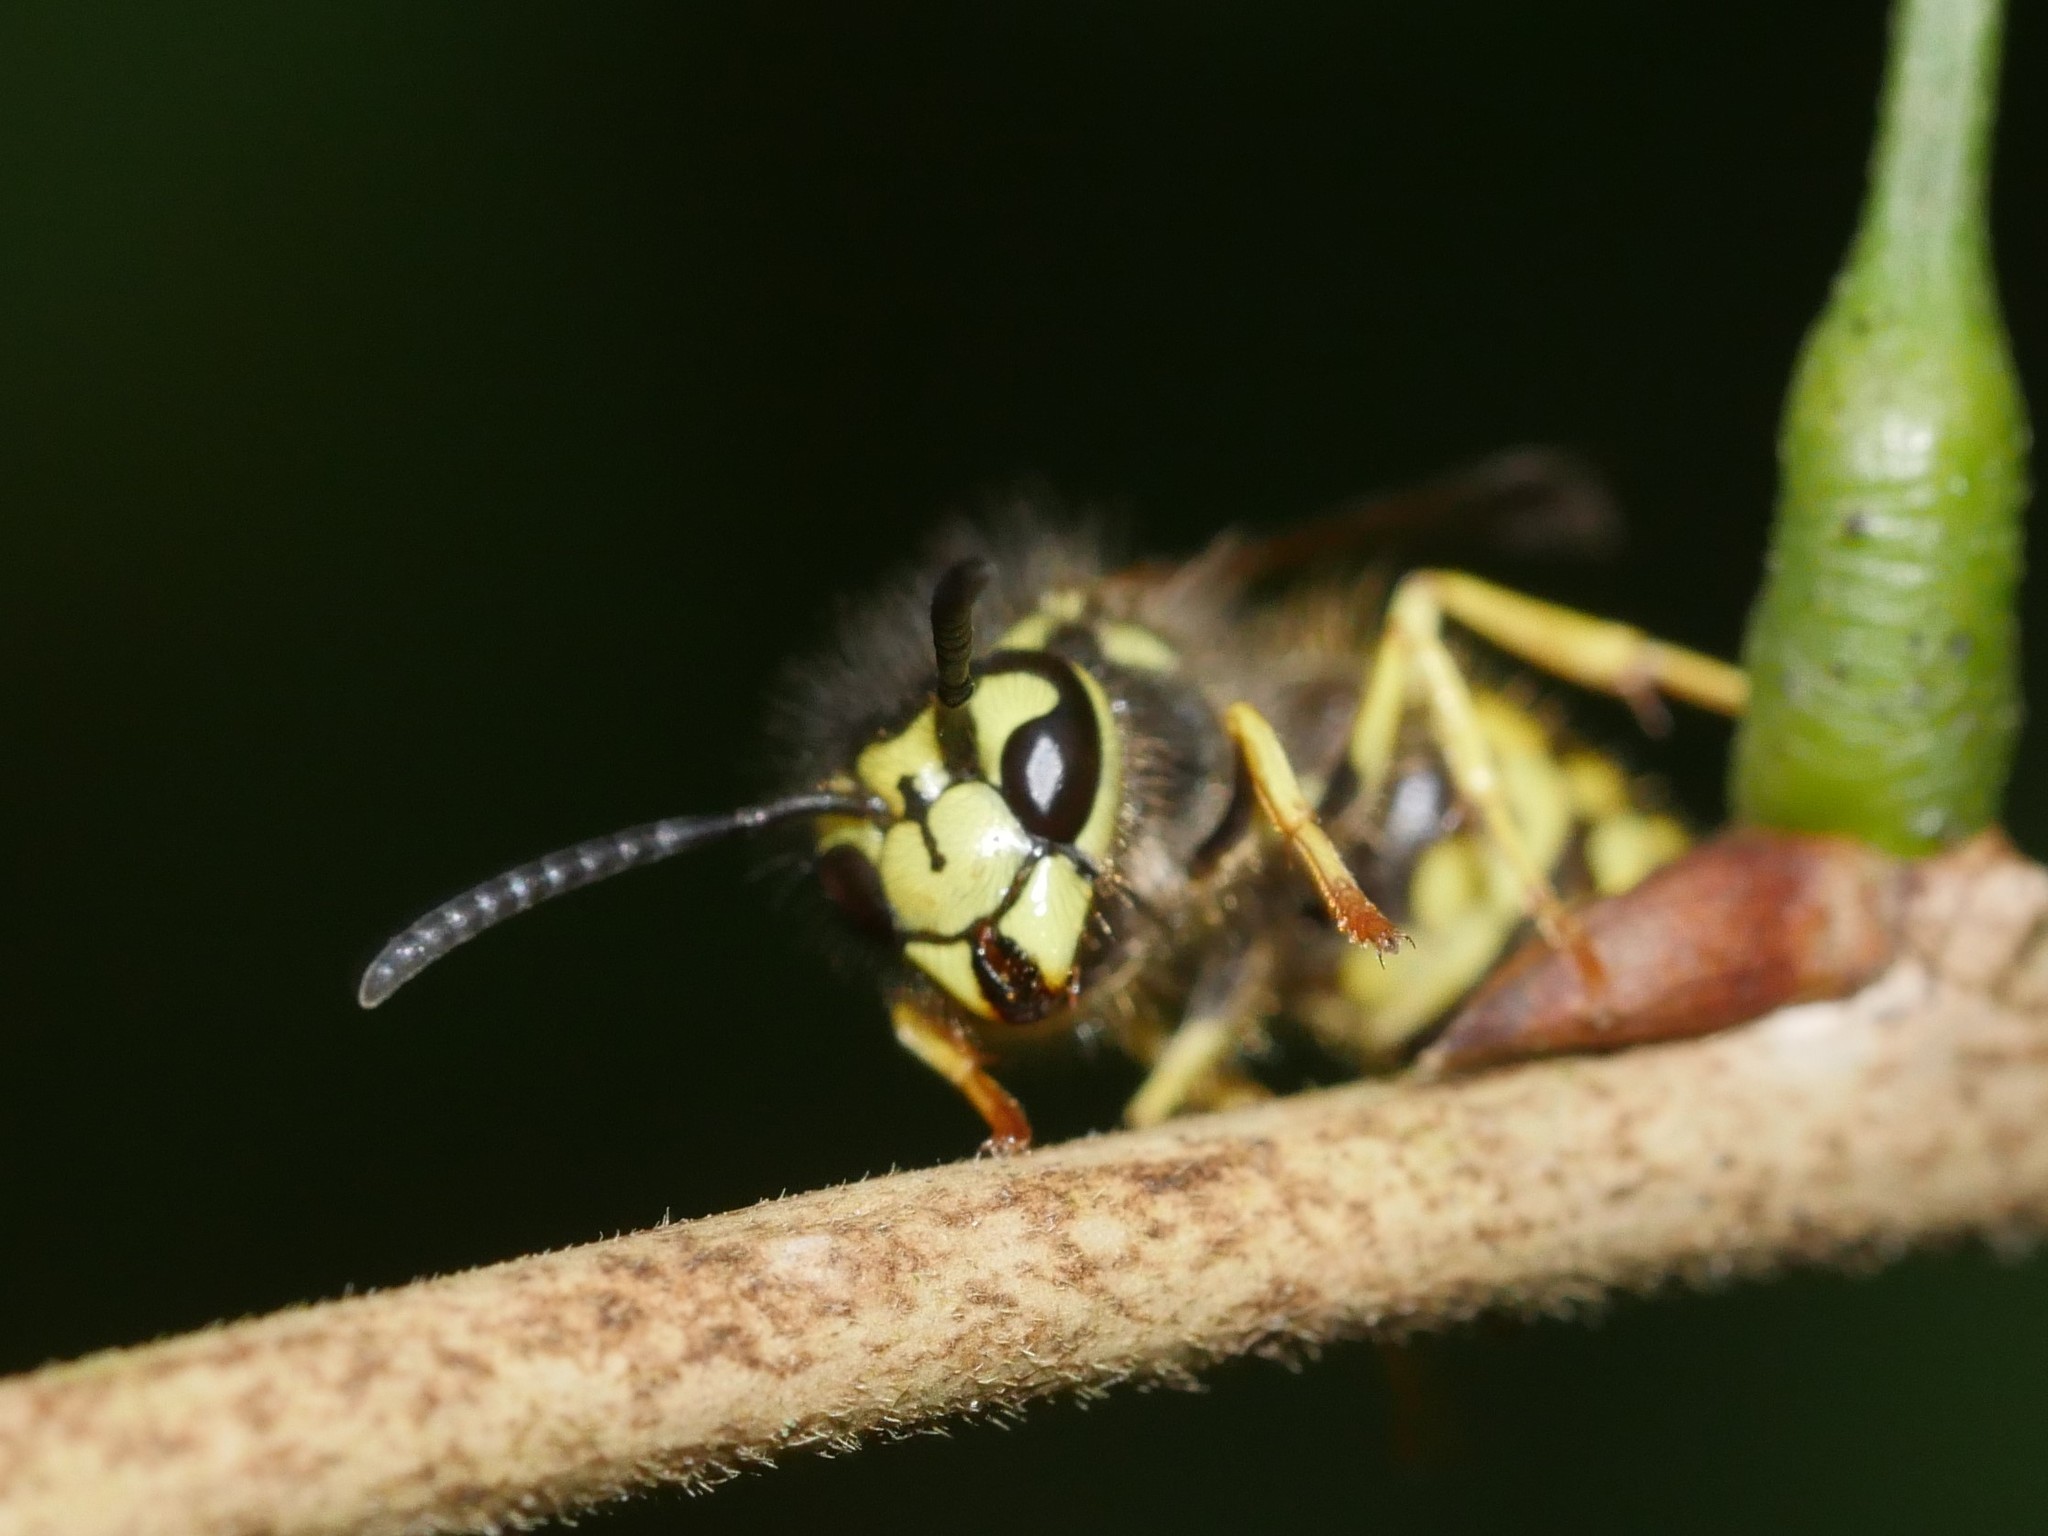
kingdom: Animalia
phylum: Arthropoda
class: Insecta
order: Hymenoptera
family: Vespidae
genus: Vespula
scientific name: Vespula maculifrons
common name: Eastern yellowjacket
